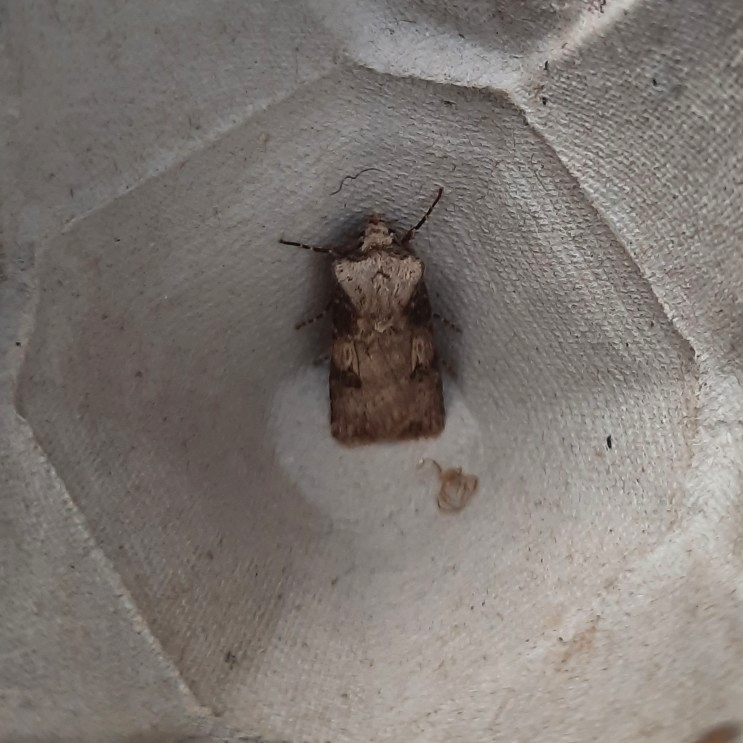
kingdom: Animalia
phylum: Arthropoda
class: Insecta
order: Lepidoptera
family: Noctuidae
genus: Agrotis
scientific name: Agrotis puta
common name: Shuttle-shaped dart
